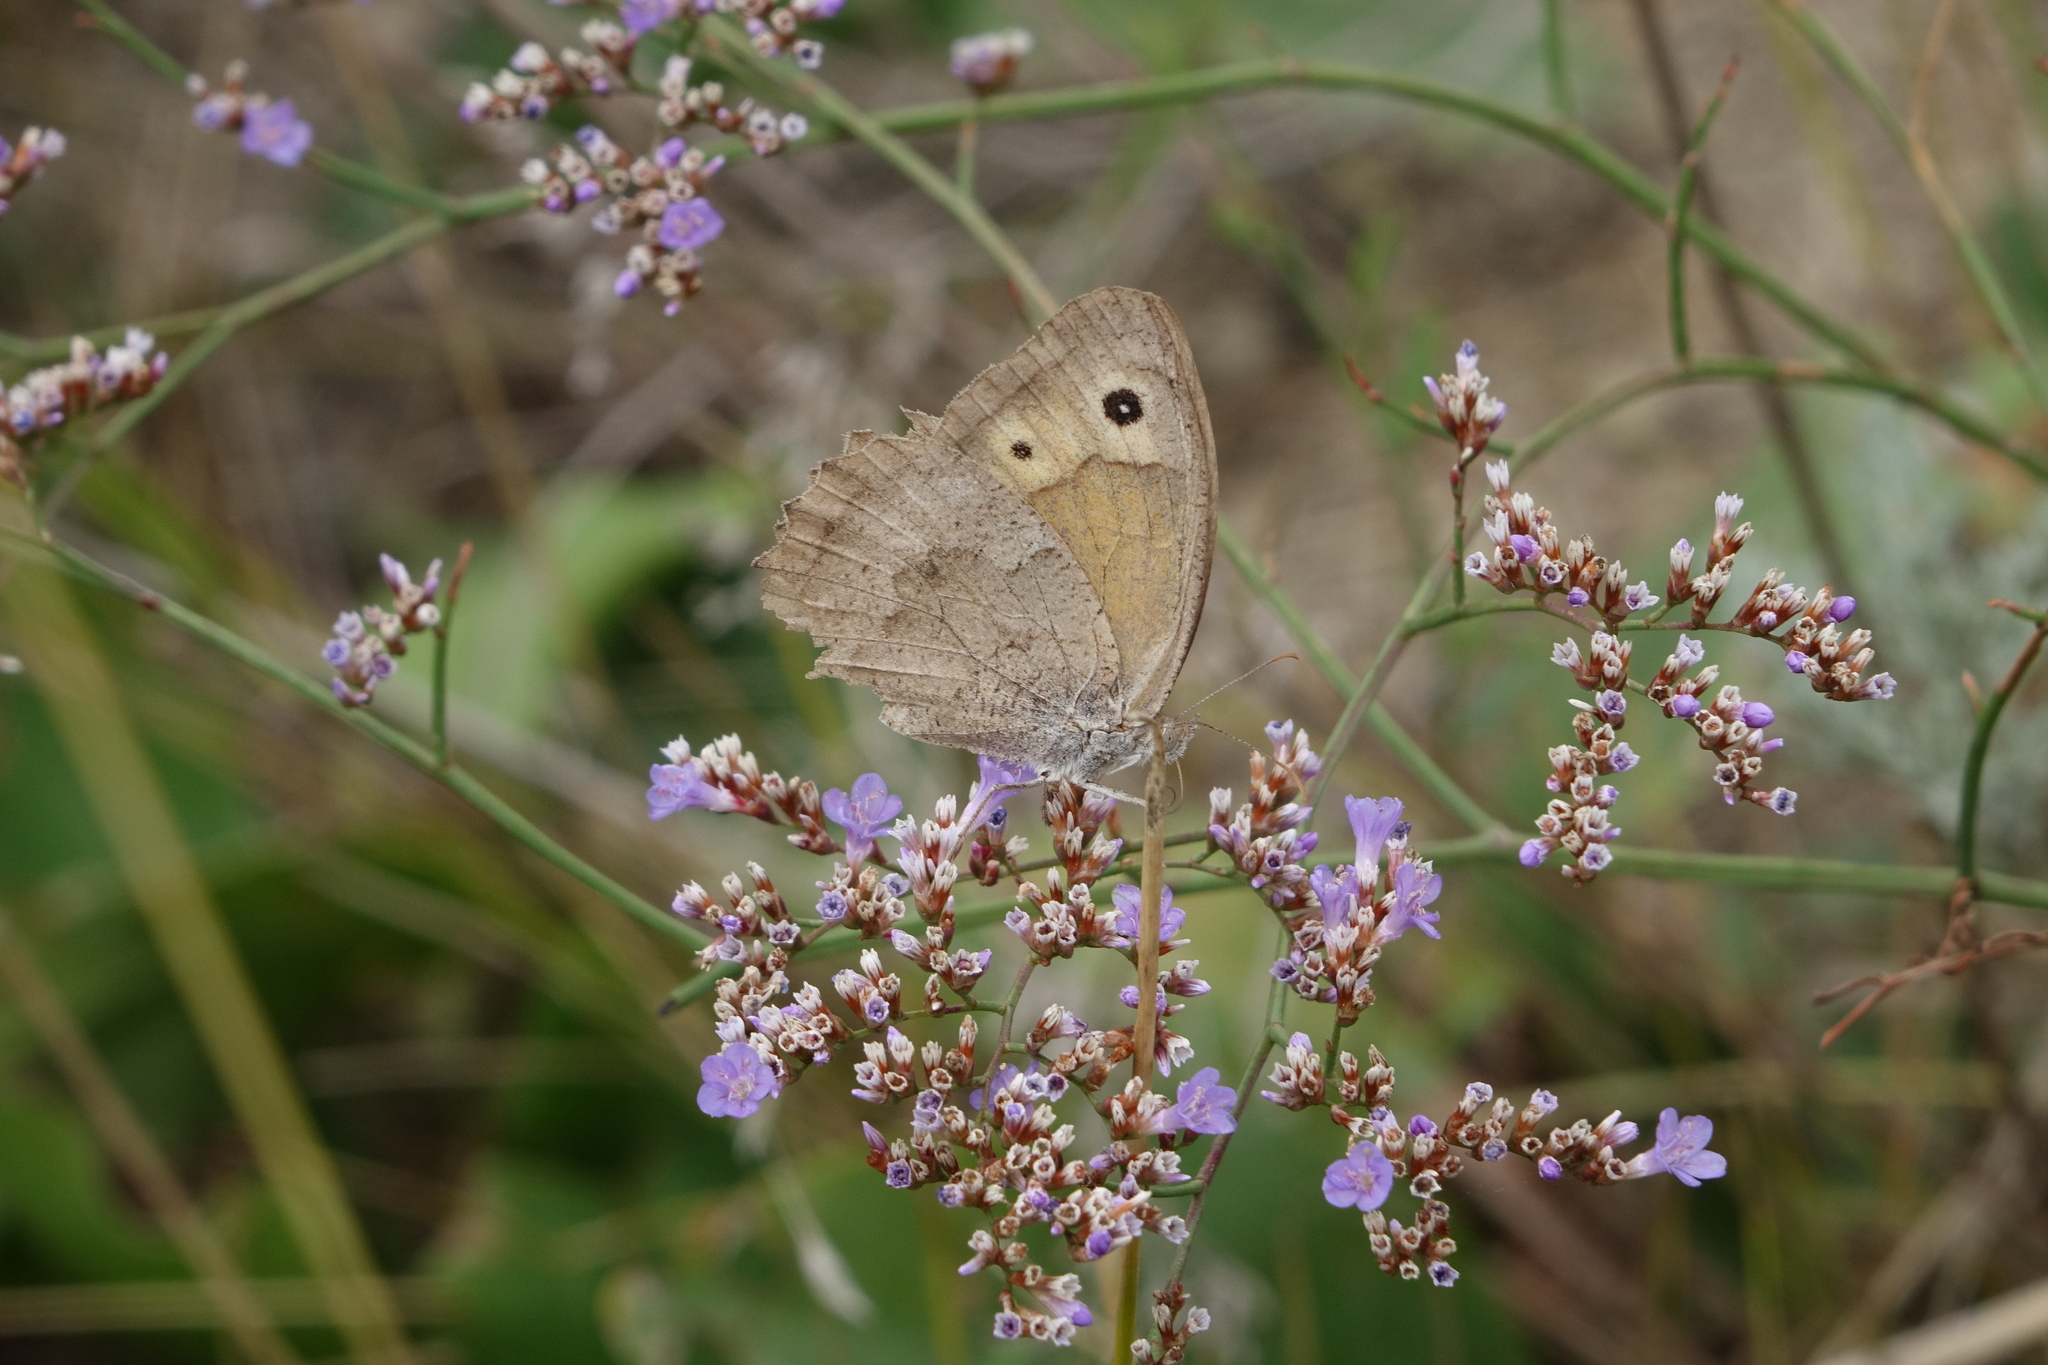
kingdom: Animalia
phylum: Arthropoda
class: Insecta
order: Lepidoptera
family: Nymphalidae
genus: Hyponephele
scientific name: Hyponephele lupinus
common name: Oriental meadow brown
